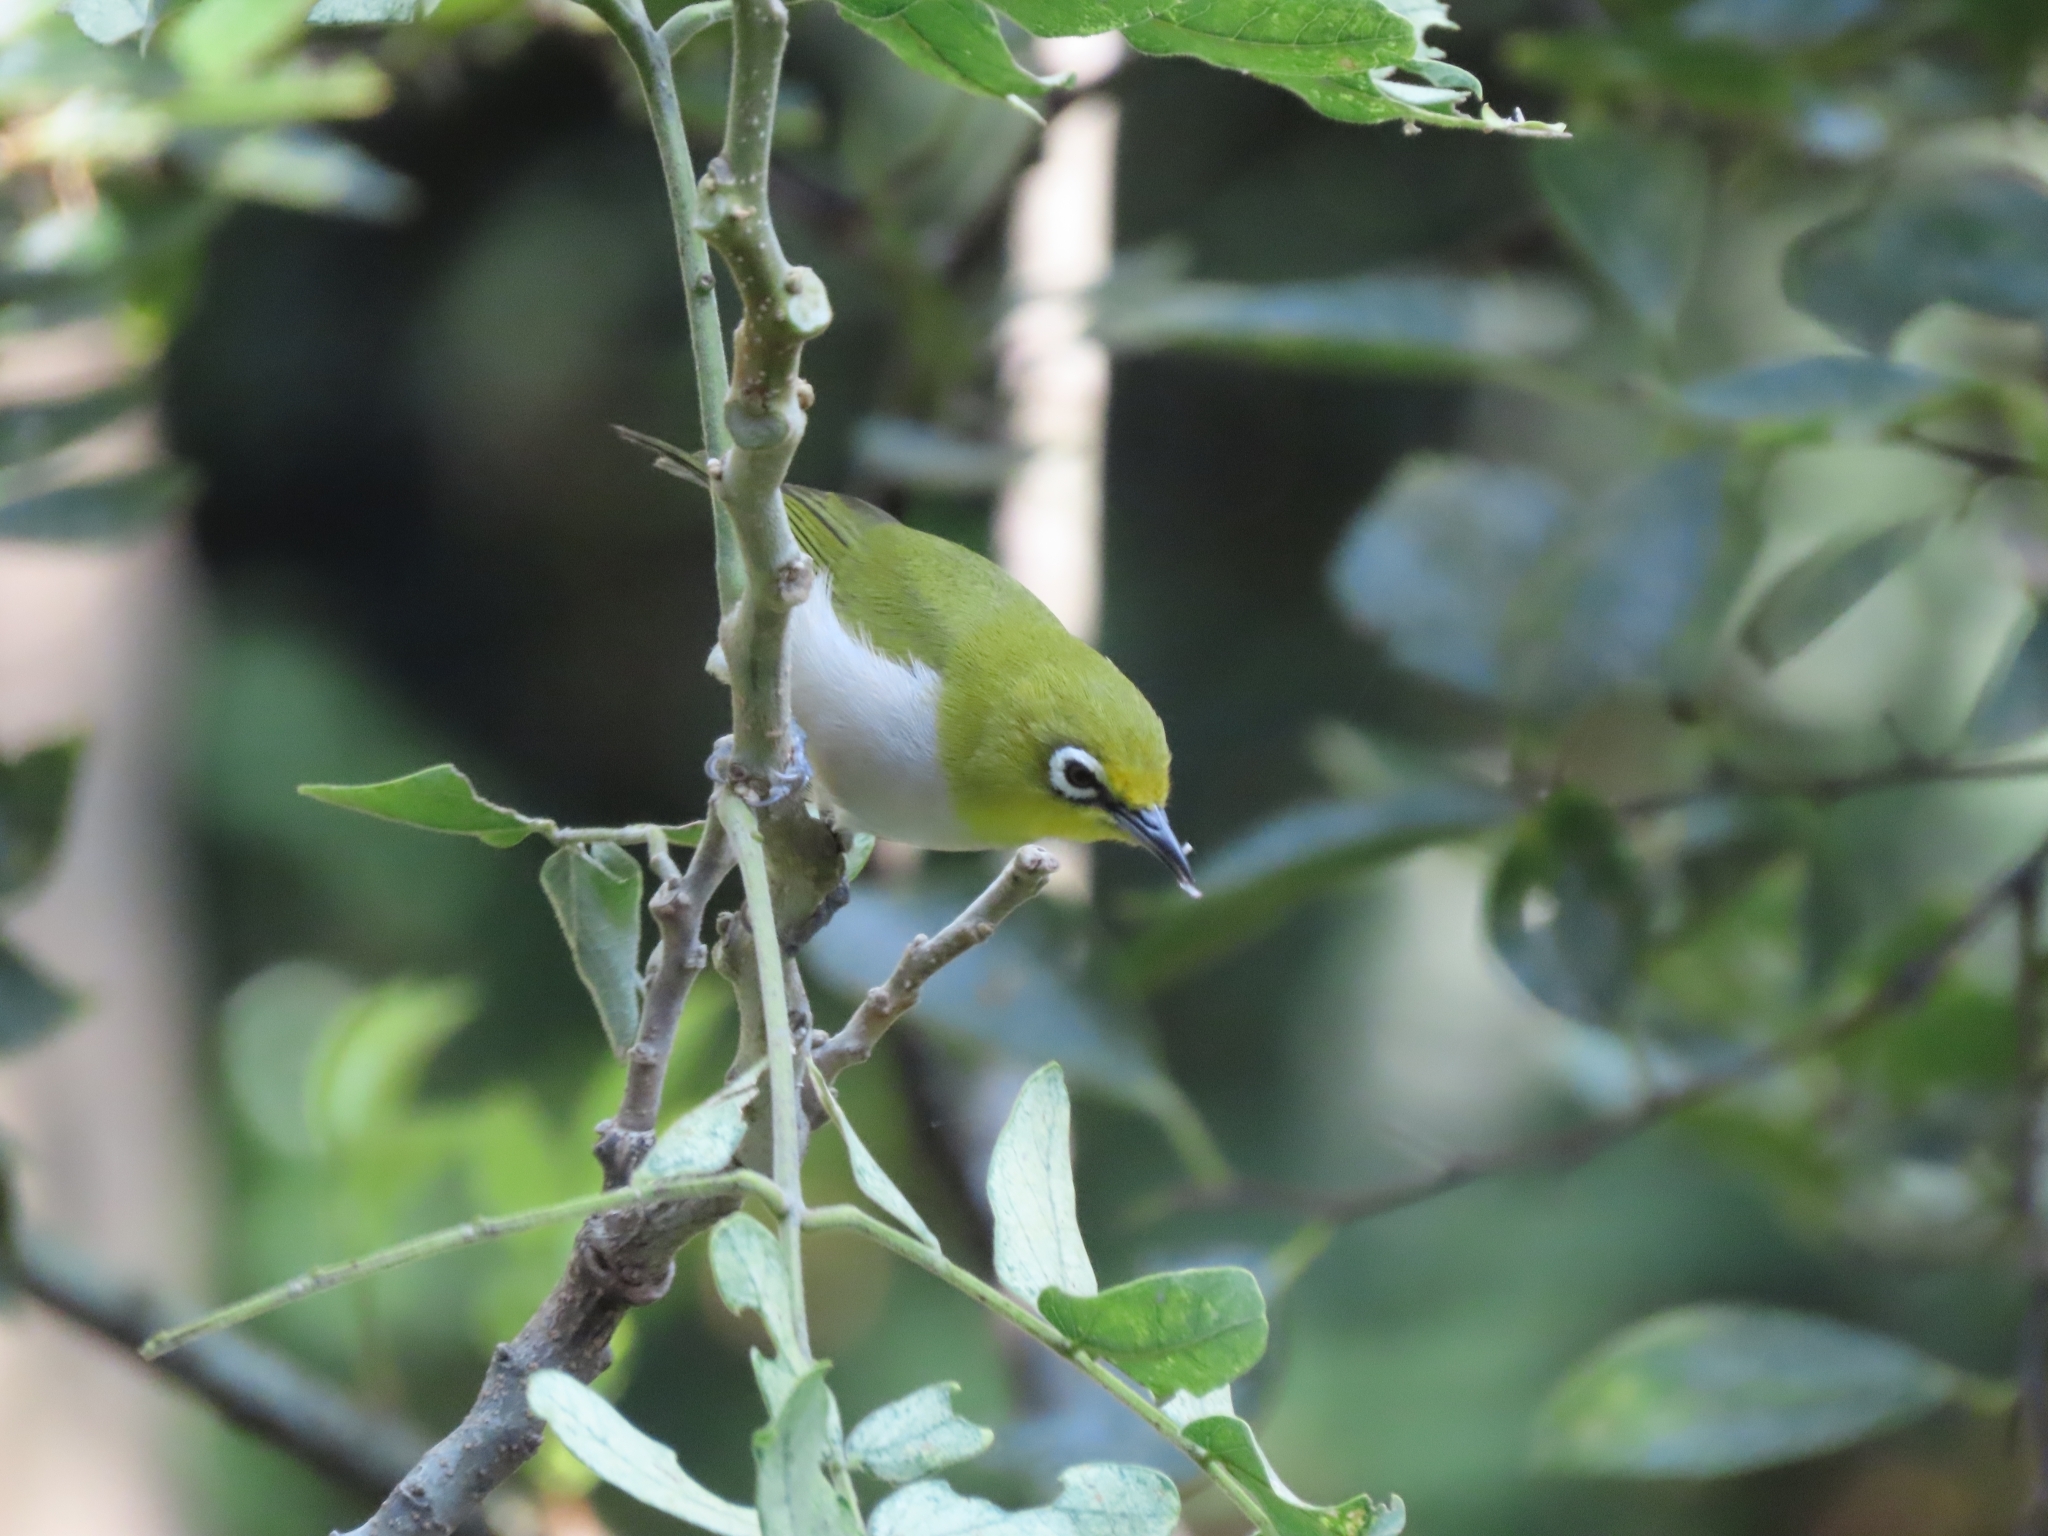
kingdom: Animalia
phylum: Chordata
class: Aves
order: Passeriformes
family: Zosteropidae
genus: Zosterops
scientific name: Zosterops simplex
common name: Swinhoe's white-eye
